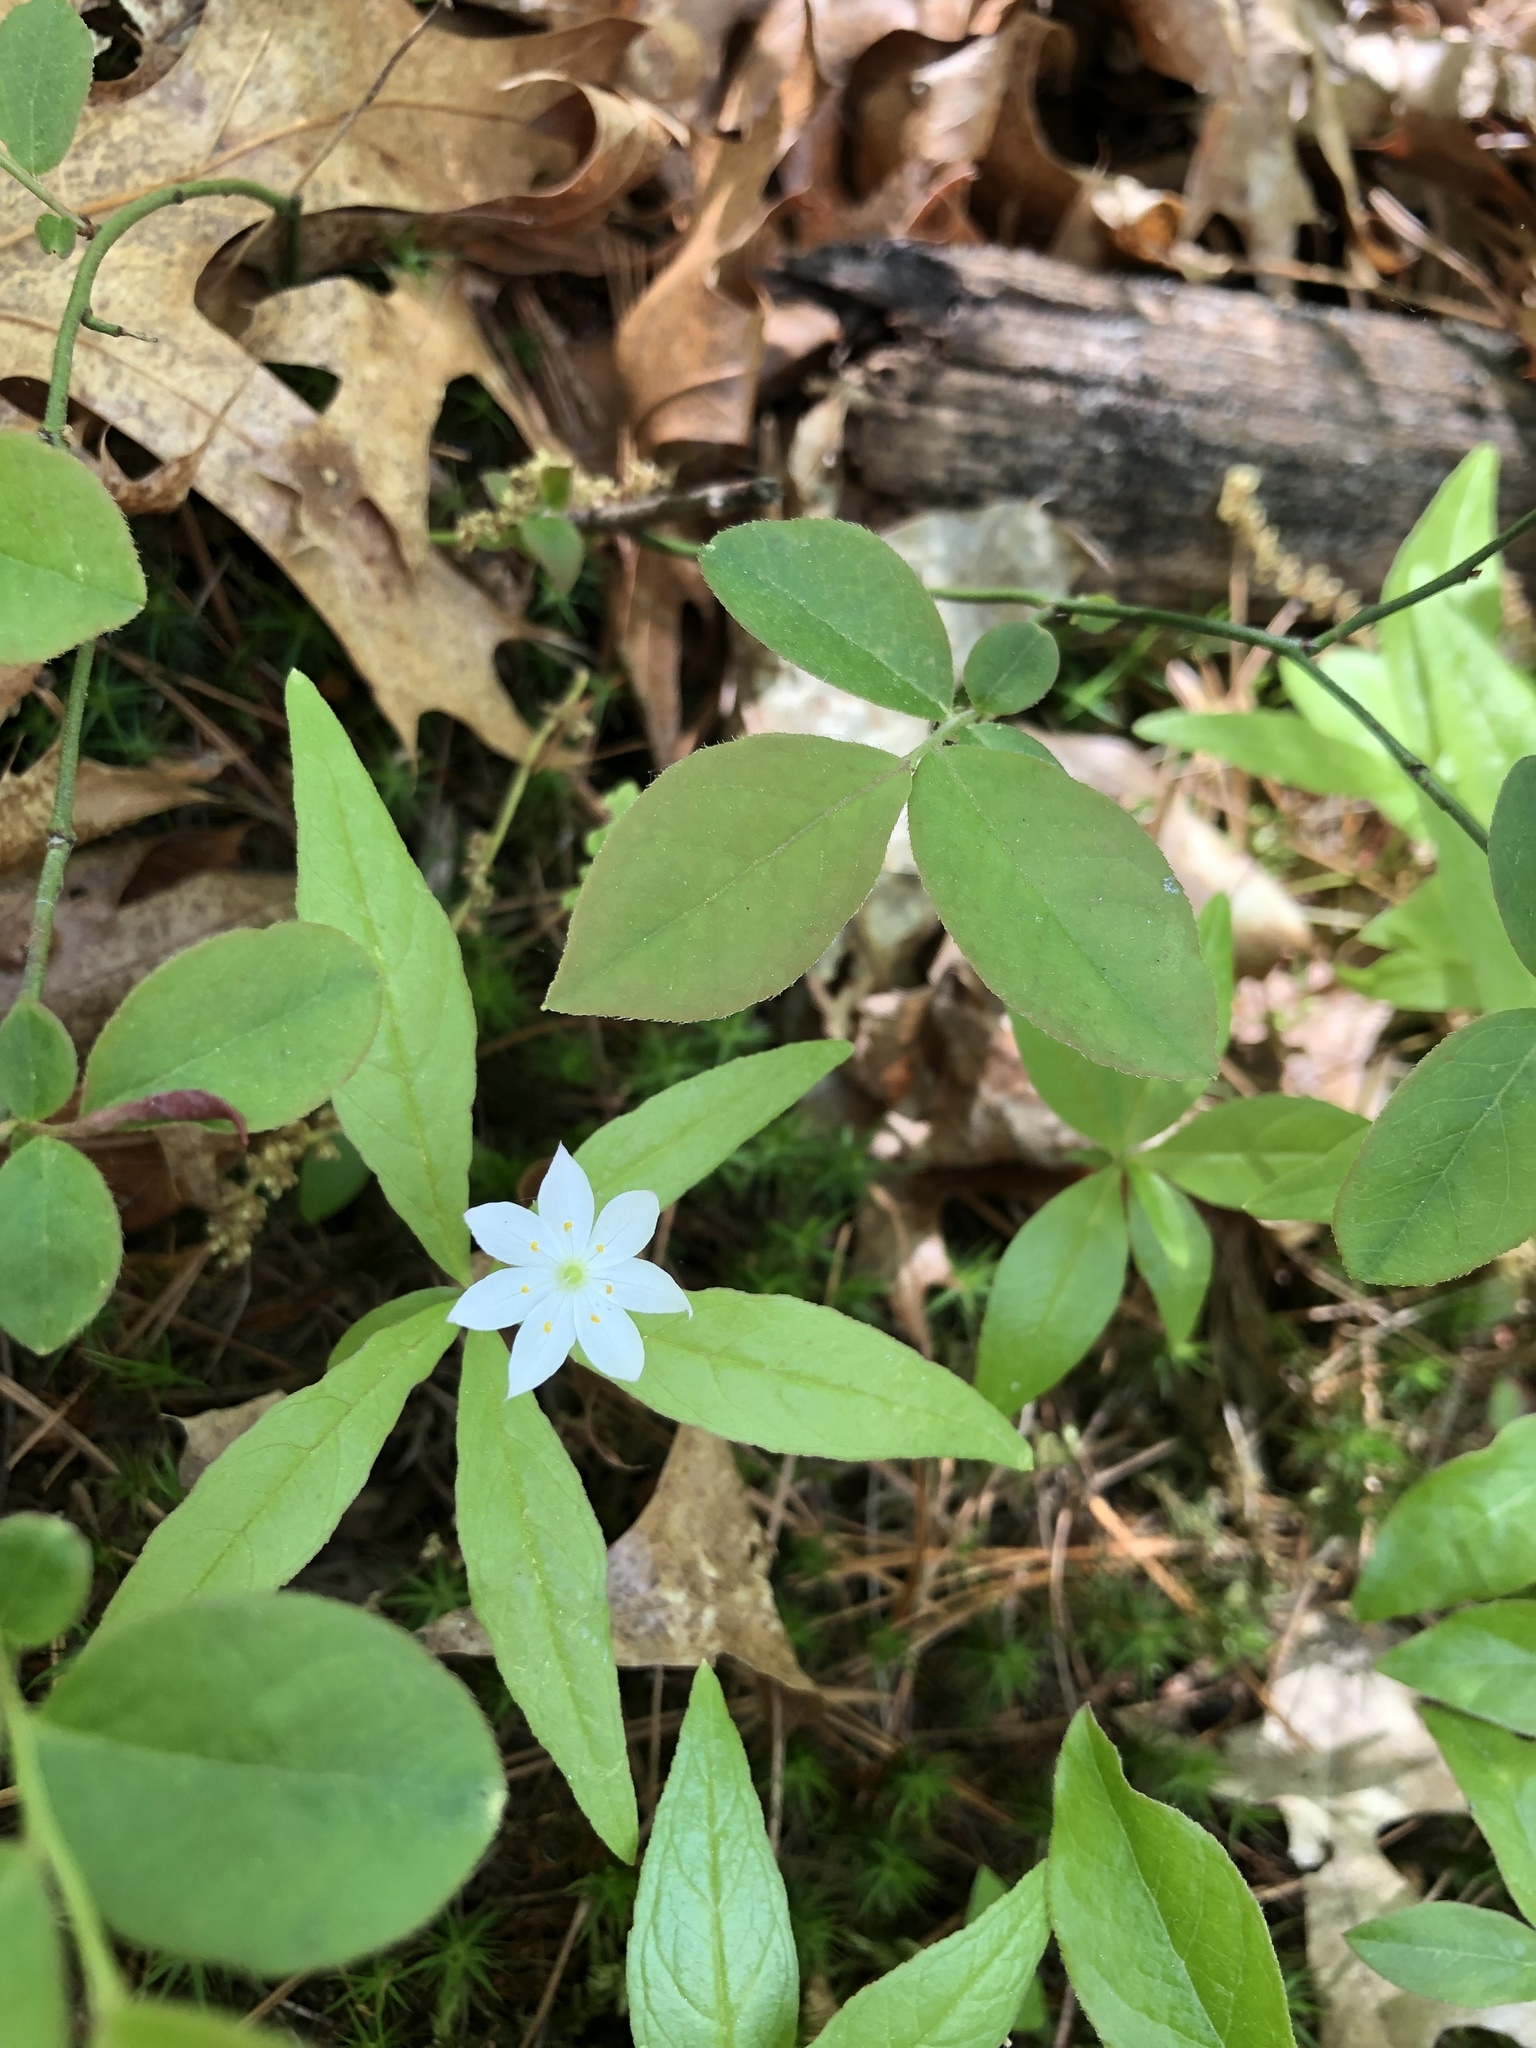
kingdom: Plantae
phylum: Tracheophyta
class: Magnoliopsida
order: Ericales
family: Primulaceae
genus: Lysimachia
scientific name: Lysimachia borealis
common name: American starflower
